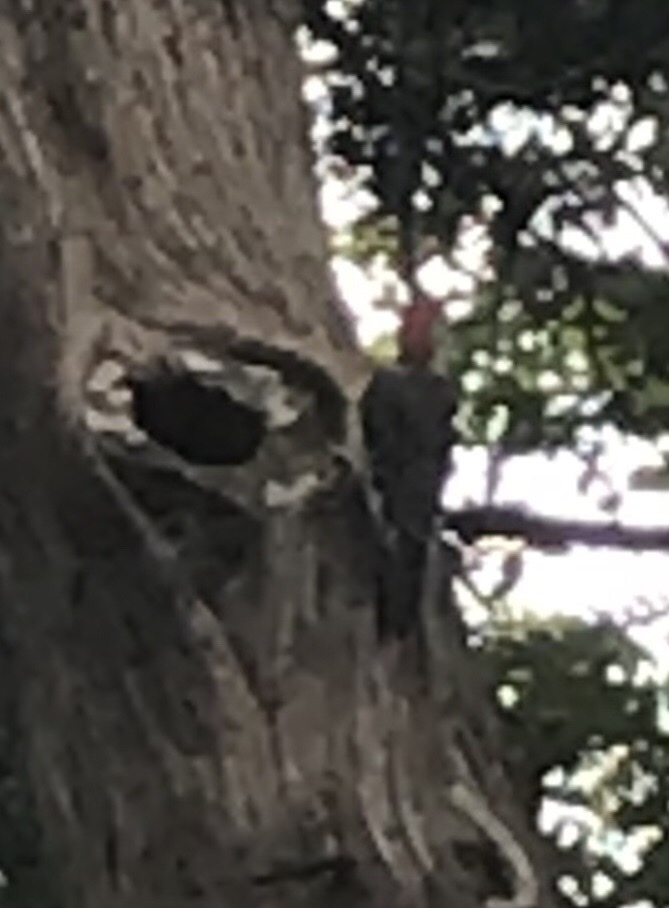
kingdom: Animalia
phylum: Chordata
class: Aves
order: Piciformes
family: Picidae
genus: Melanerpes
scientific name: Melanerpes carolinus
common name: Red-bellied woodpecker
